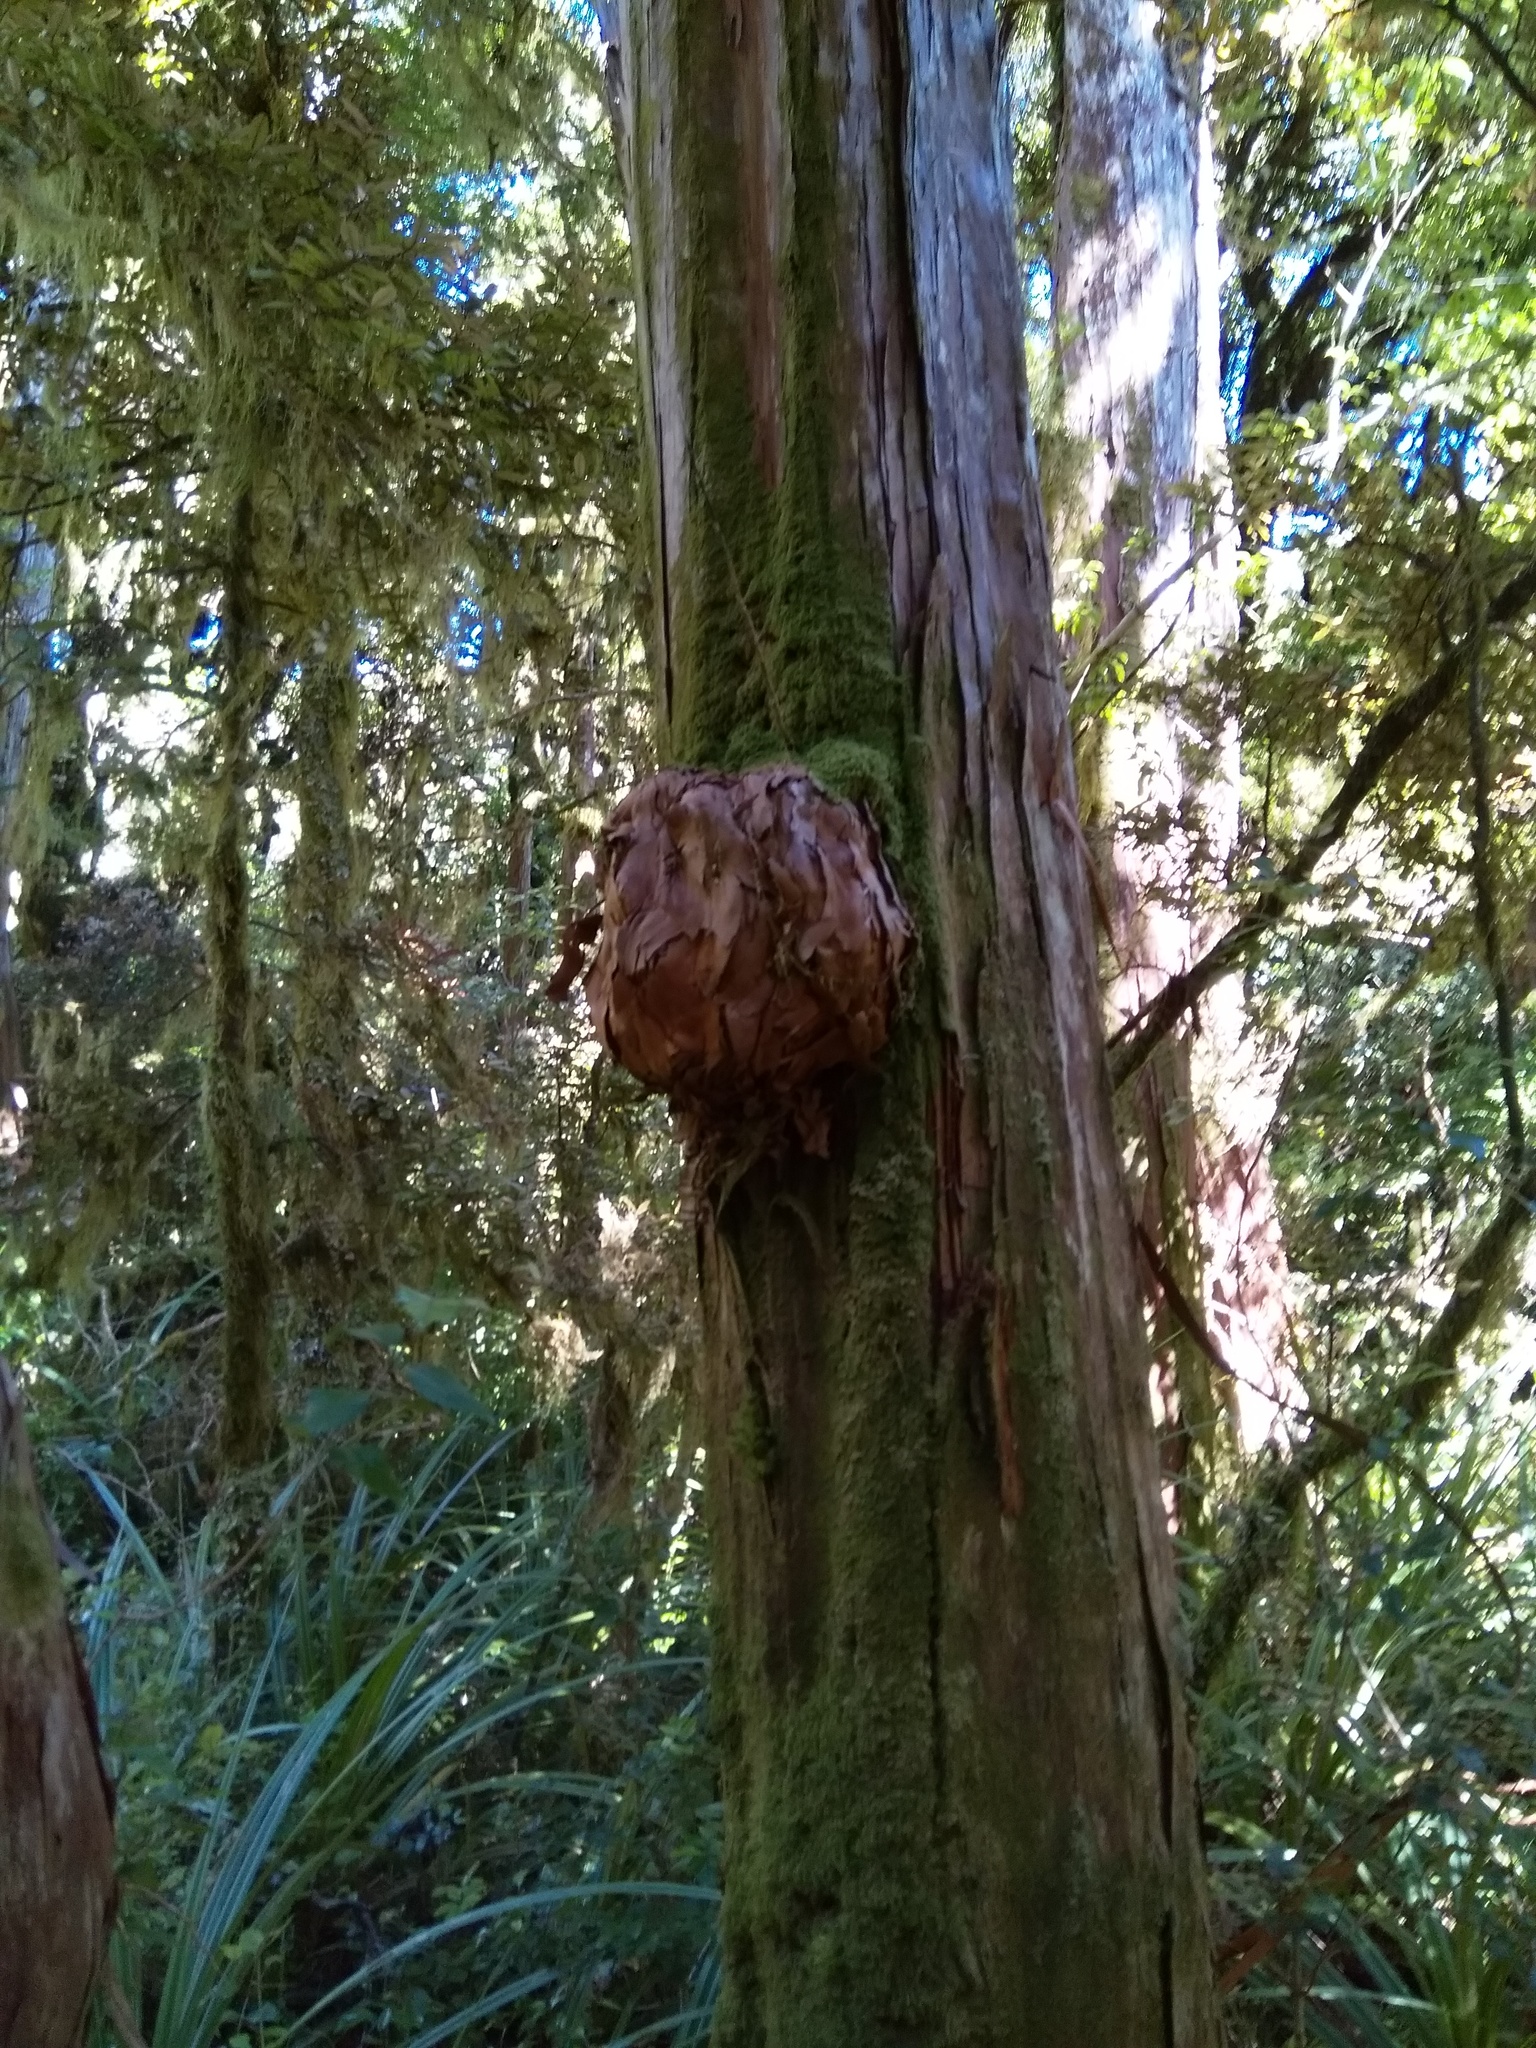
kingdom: Plantae
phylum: Tracheophyta
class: Pinopsida
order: Pinales
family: Cupressaceae
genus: Libocedrus
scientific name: Libocedrus bidwillii
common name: Cedar
